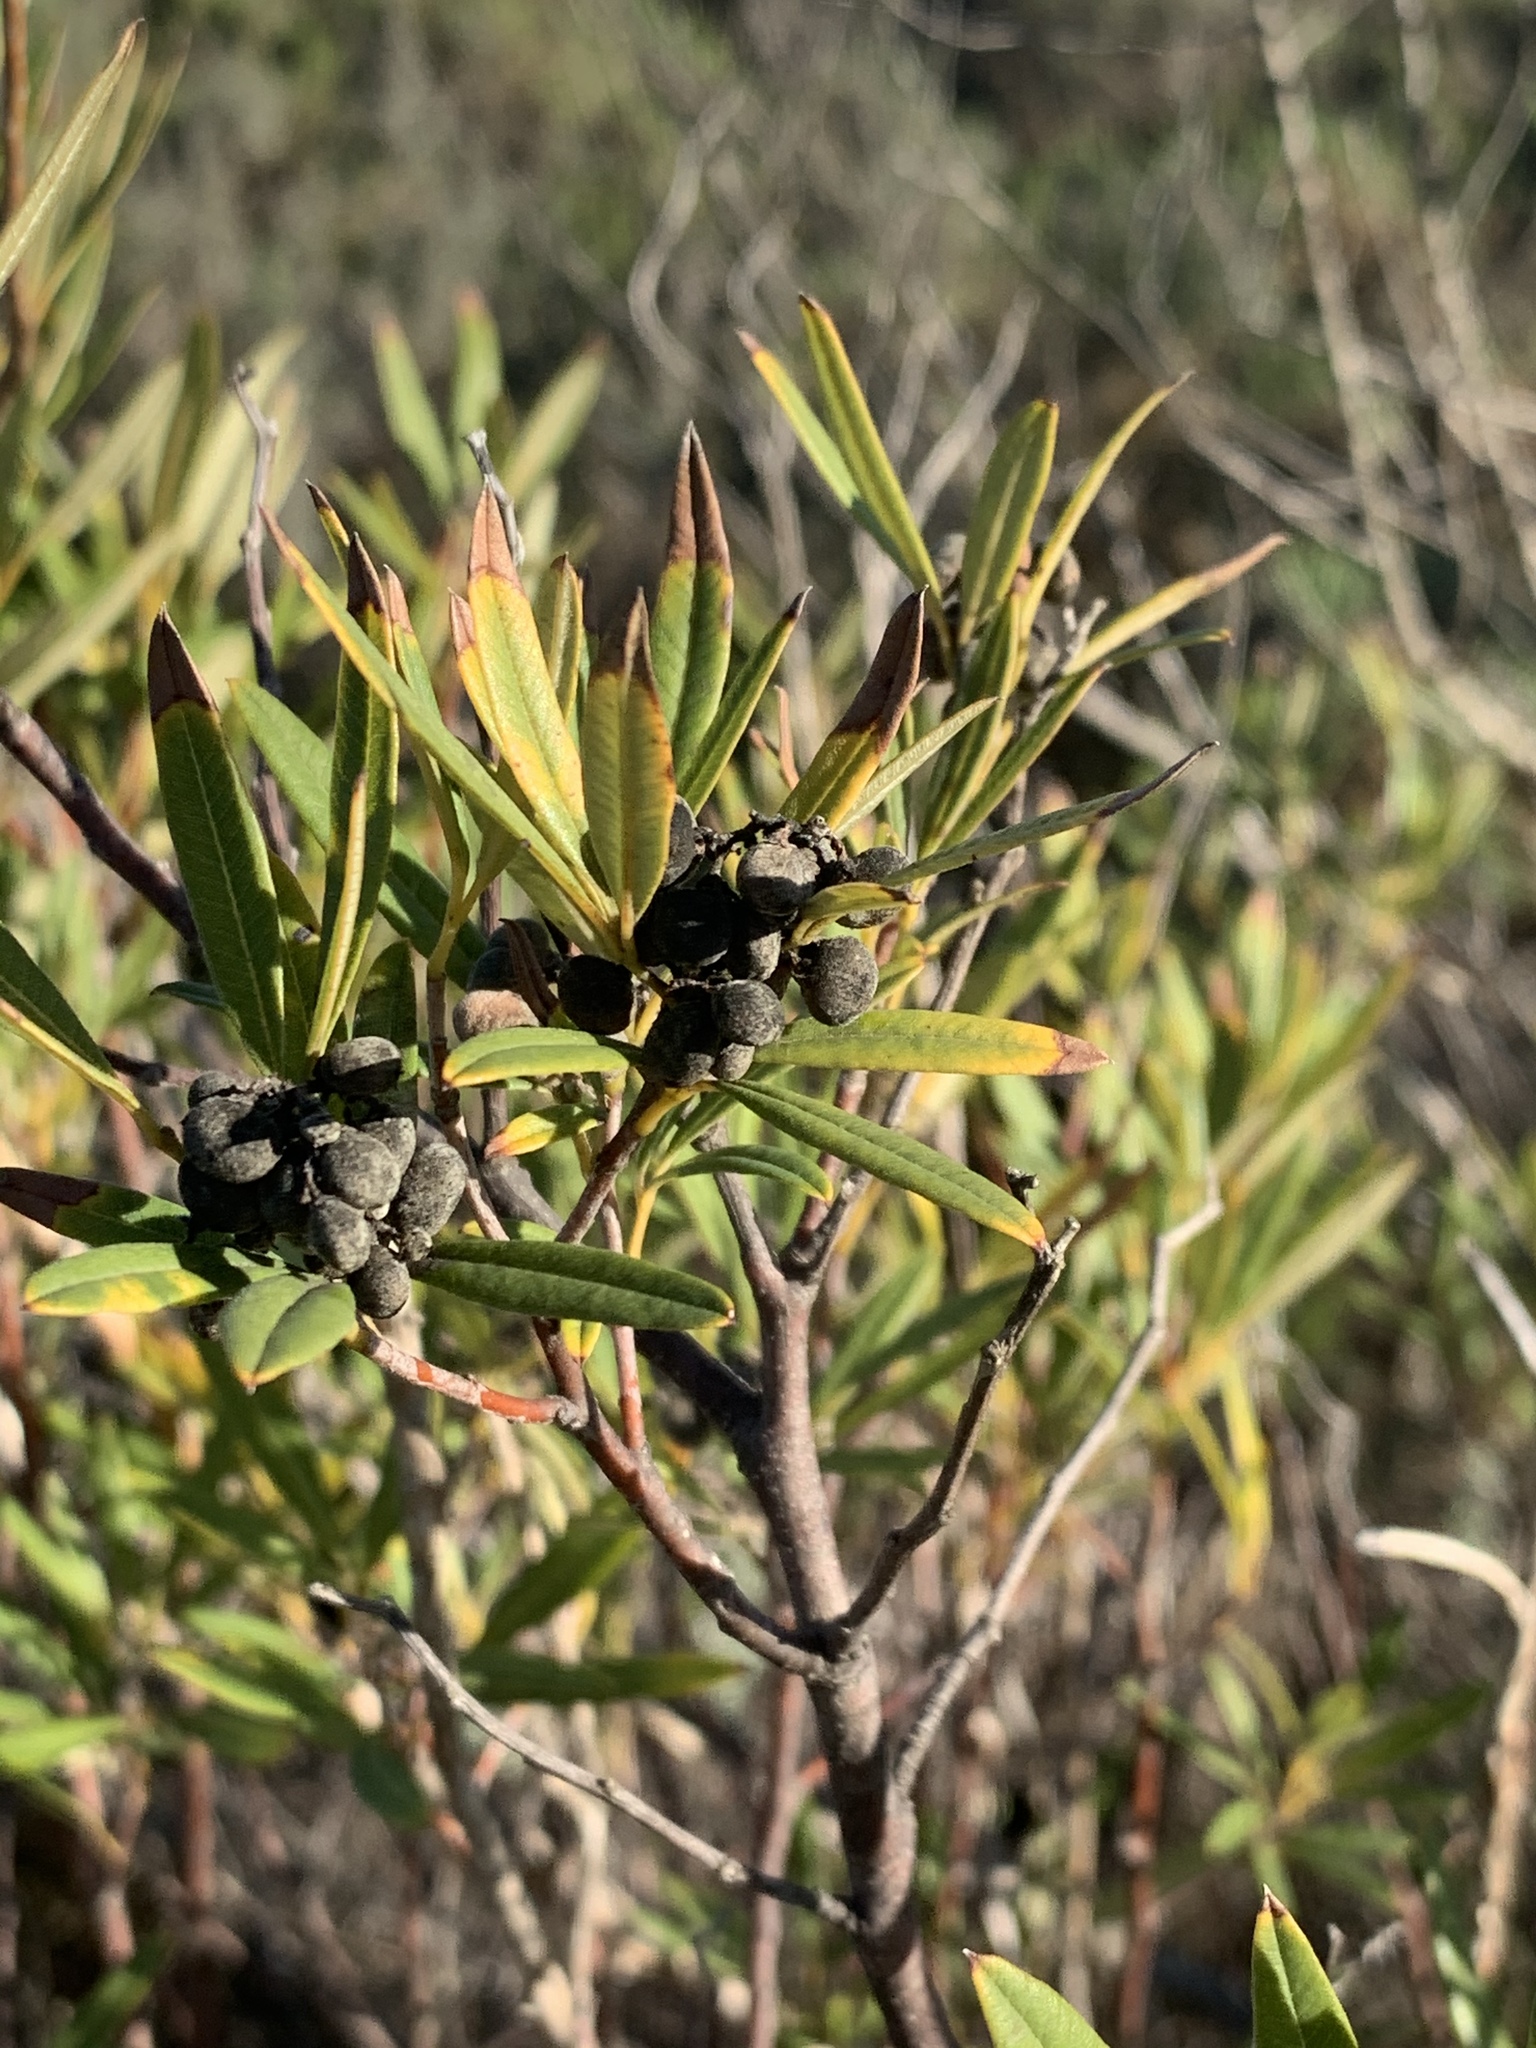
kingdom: Plantae
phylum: Tracheophyta
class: Magnoliopsida
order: Sapindales
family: Anacardiaceae
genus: Searsia
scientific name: Searsia angustifolia
